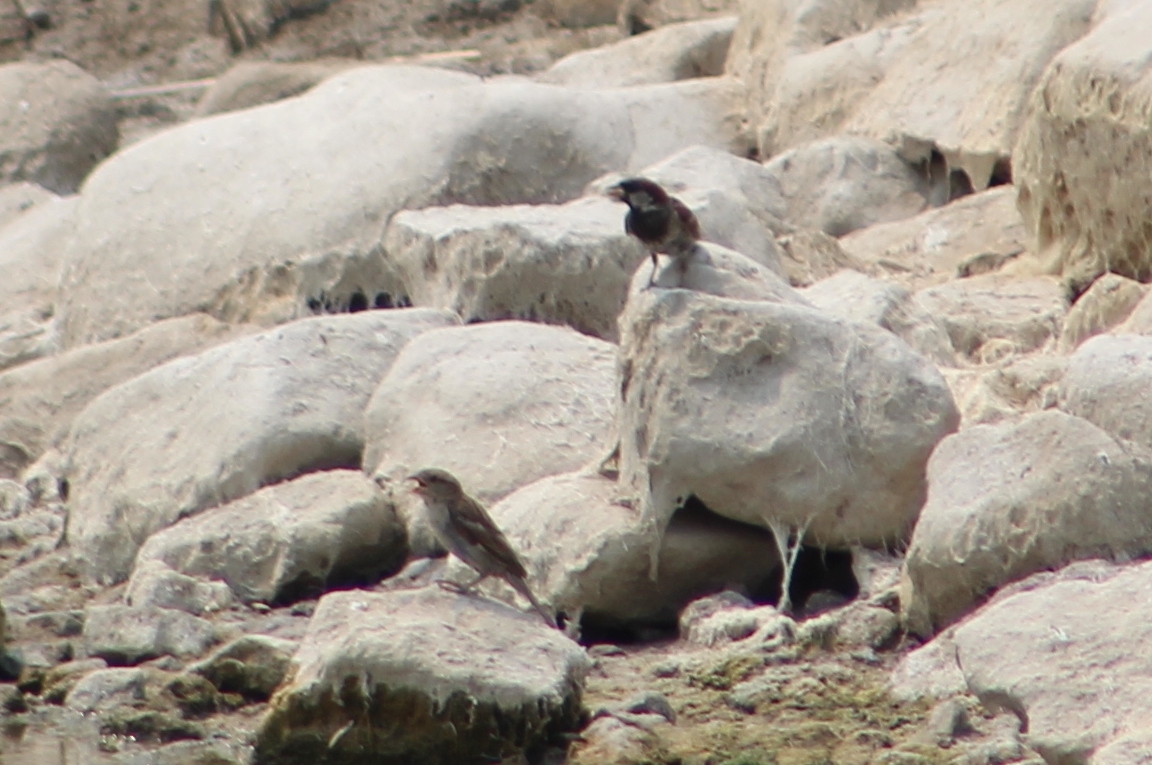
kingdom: Animalia
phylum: Chordata
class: Aves
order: Passeriformes
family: Passeridae
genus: Passer
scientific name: Passer domesticus
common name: House sparrow
